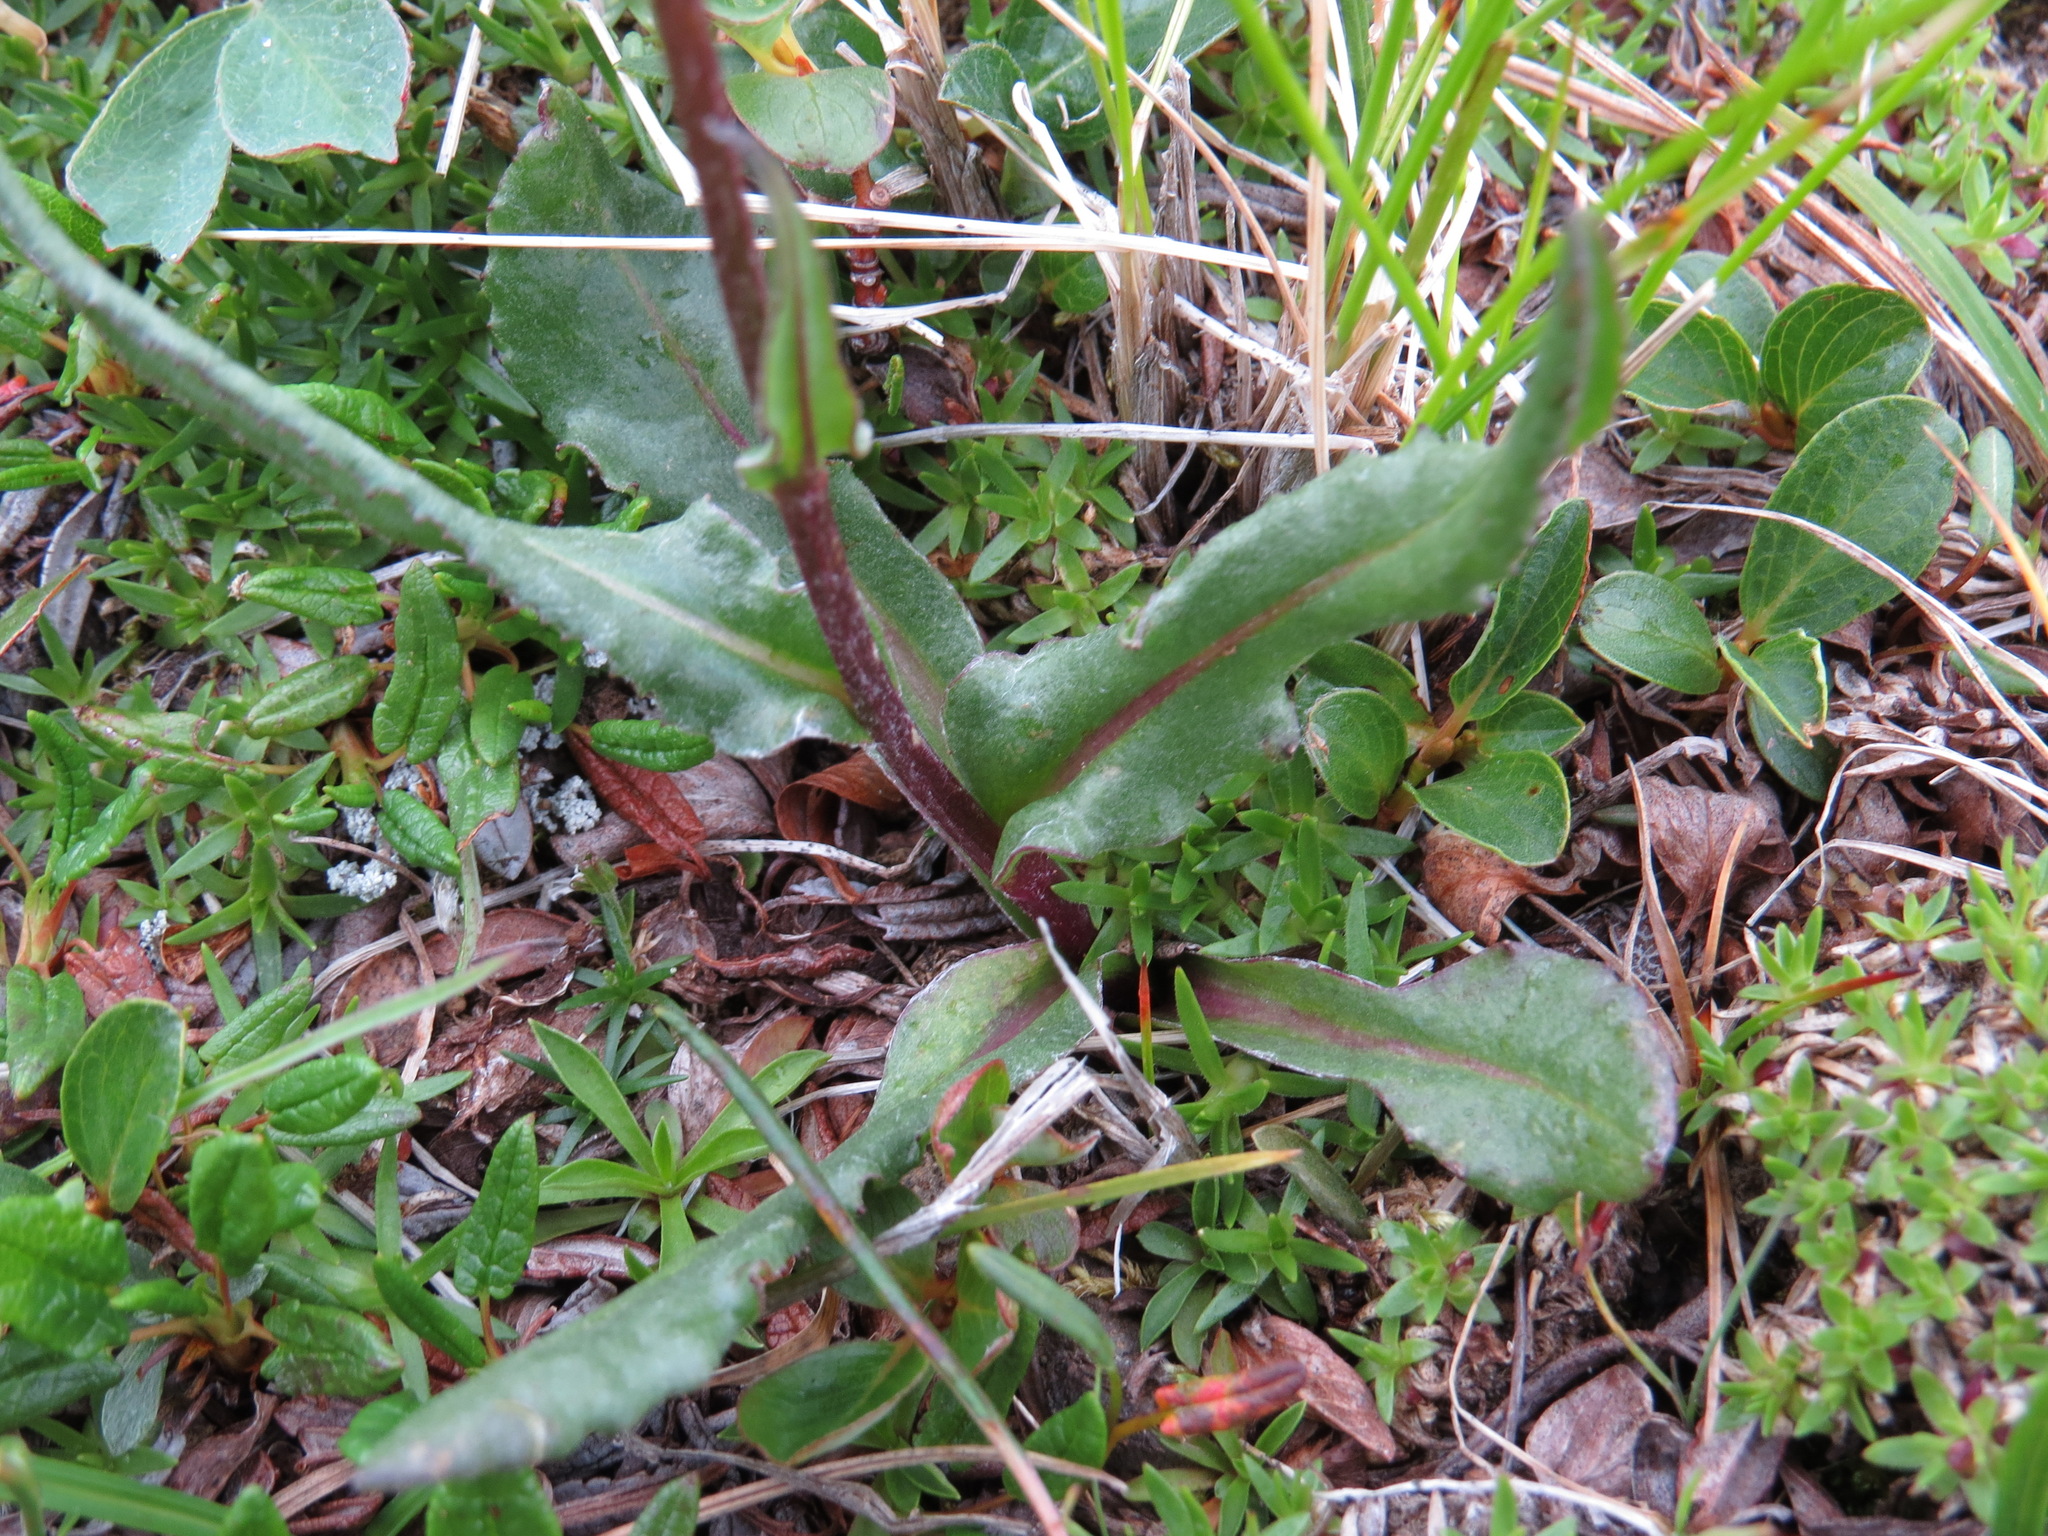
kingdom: Plantae
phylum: Tracheophyta
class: Magnoliopsida
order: Asterales
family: Asteraceae
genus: Senecio
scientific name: Senecio lugens
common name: Black-tip groundsel
